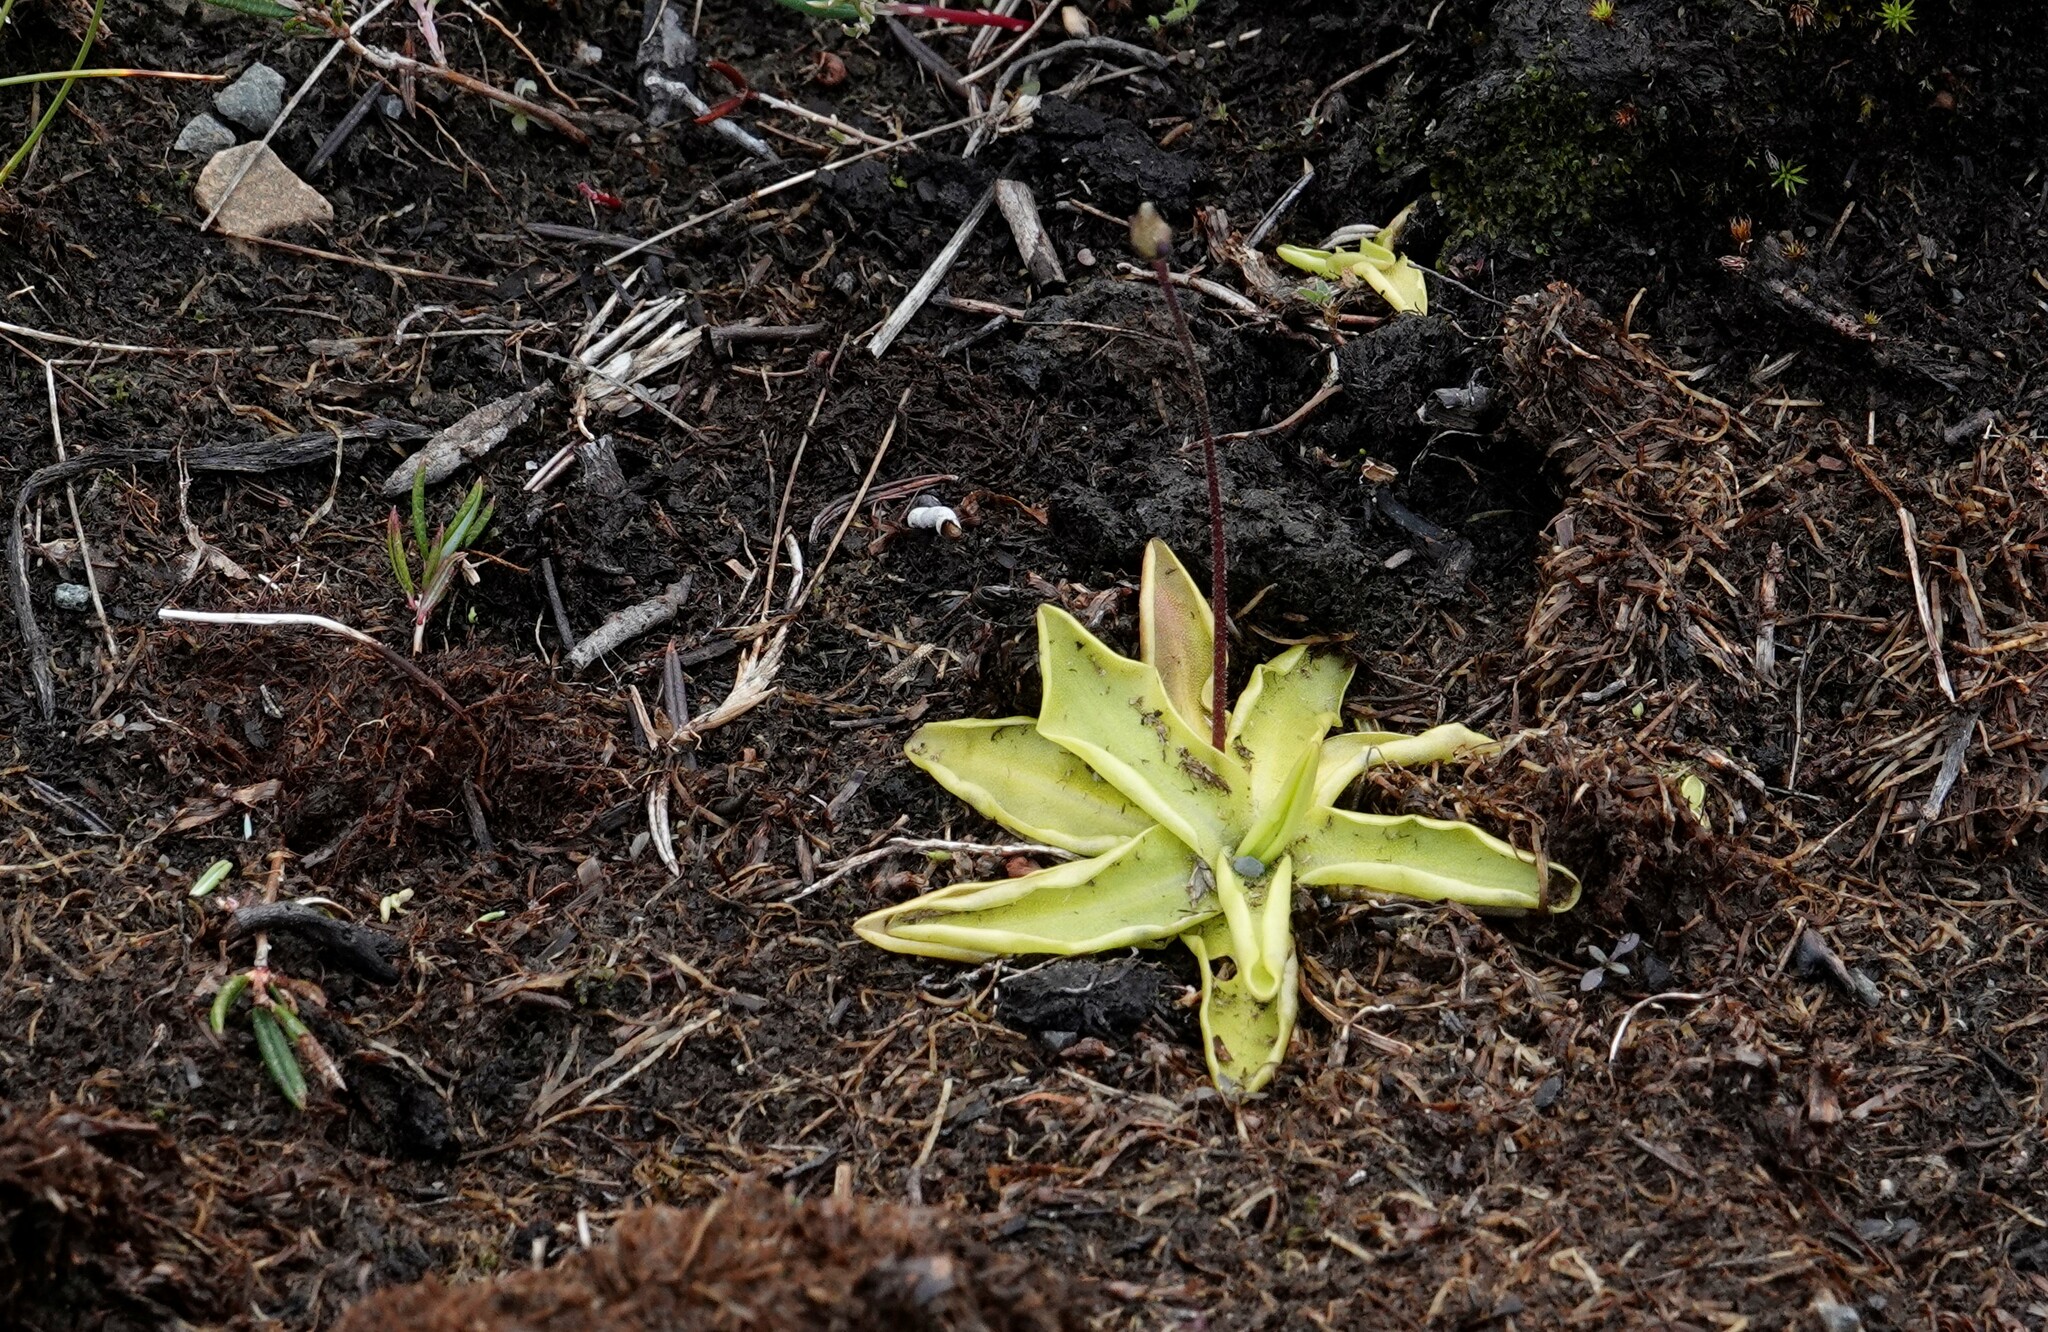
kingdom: Plantae
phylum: Tracheophyta
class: Magnoliopsida
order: Lamiales
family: Lentibulariaceae
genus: Pinguicula
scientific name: Pinguicula vulgaris
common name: Common butterwort
